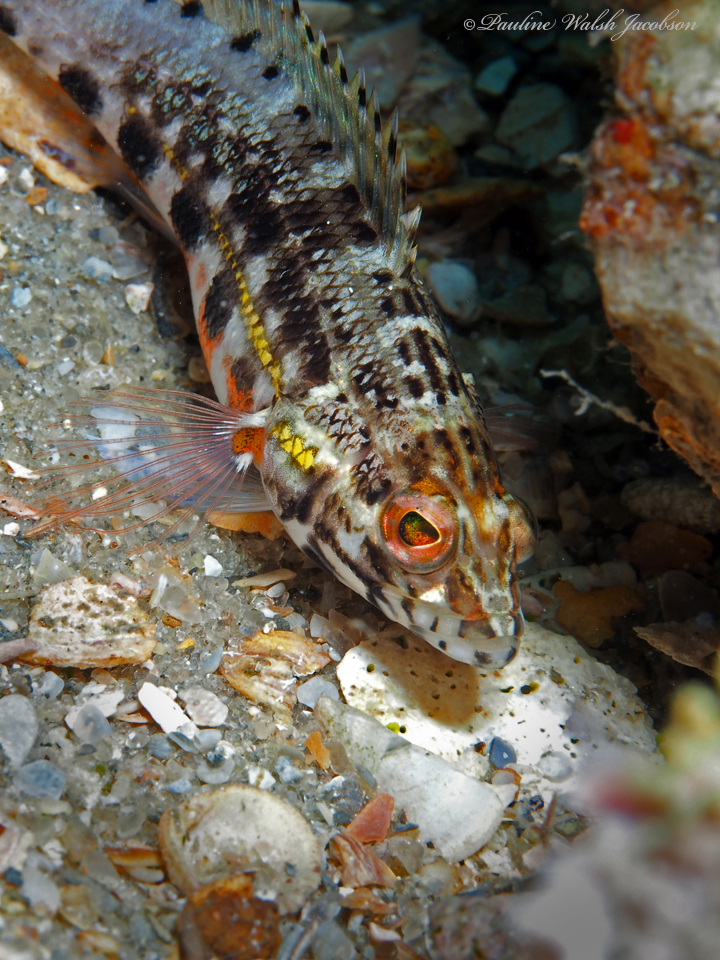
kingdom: Animalia
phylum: Chordata
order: Perciformes
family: Serranidae
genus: Serranus
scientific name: Serranus baldwini
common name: Lantern bass
